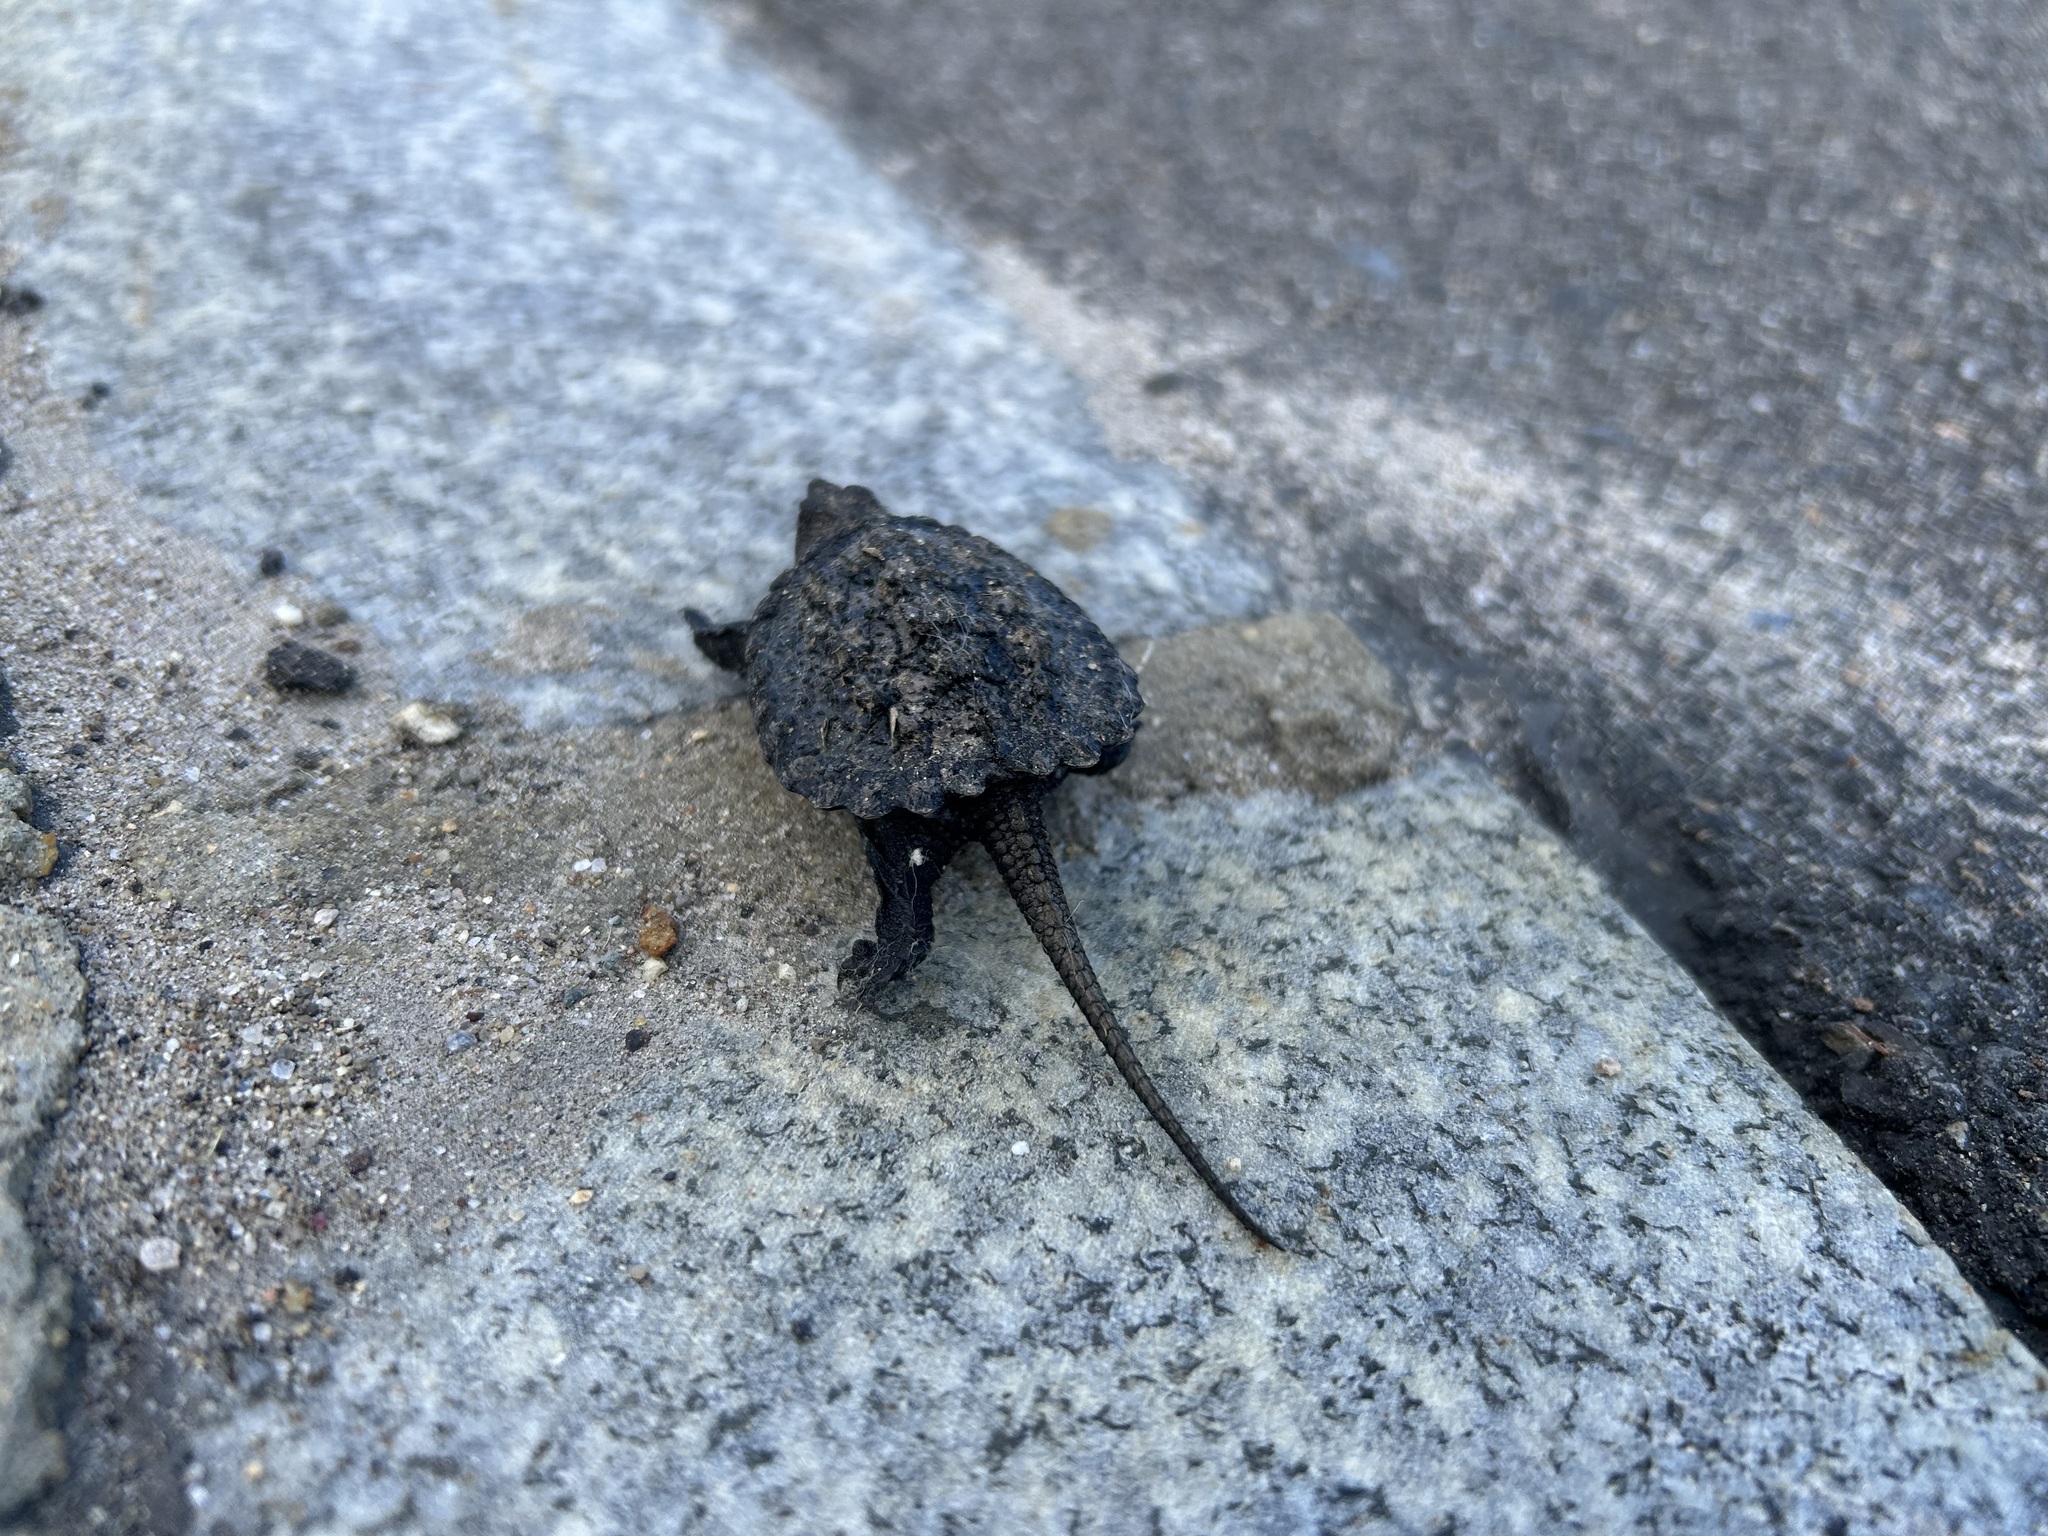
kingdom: Animalia
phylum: Chordata
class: Testudines
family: Chelydridae
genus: Chelydra
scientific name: Chelydra serpentina
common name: Common snapping turtle
